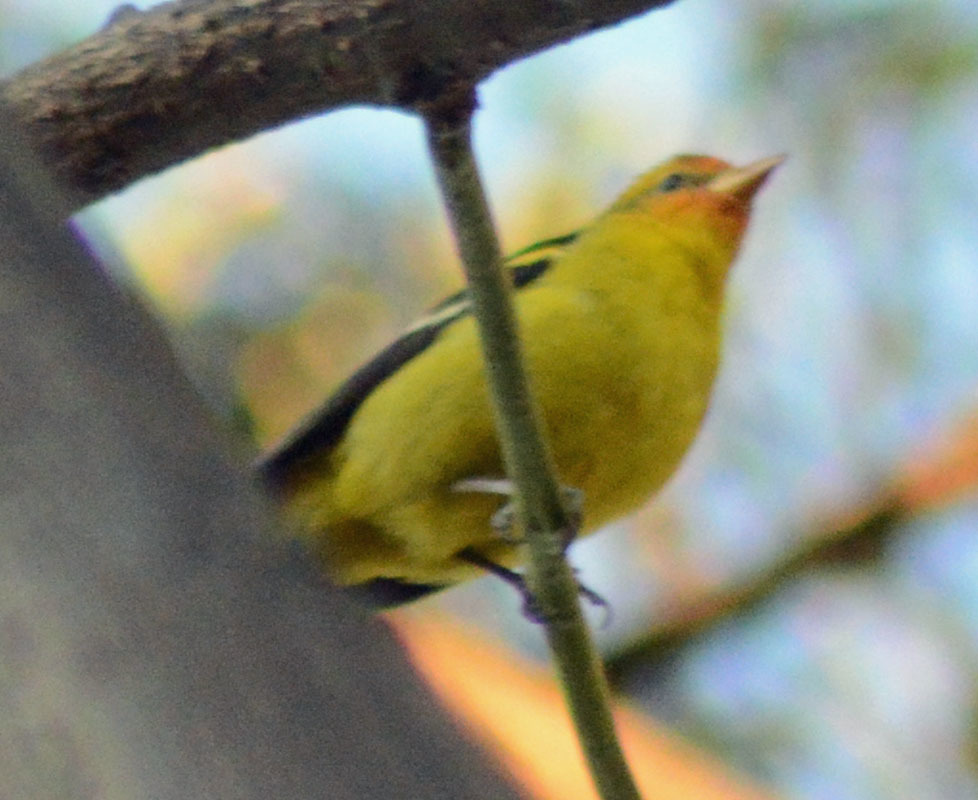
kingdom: Animalia
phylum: Chordata
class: Aves
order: Passeriformes
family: Cardinalidae
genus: Piranga
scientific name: Piranga ludoviciana
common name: Western tanager
